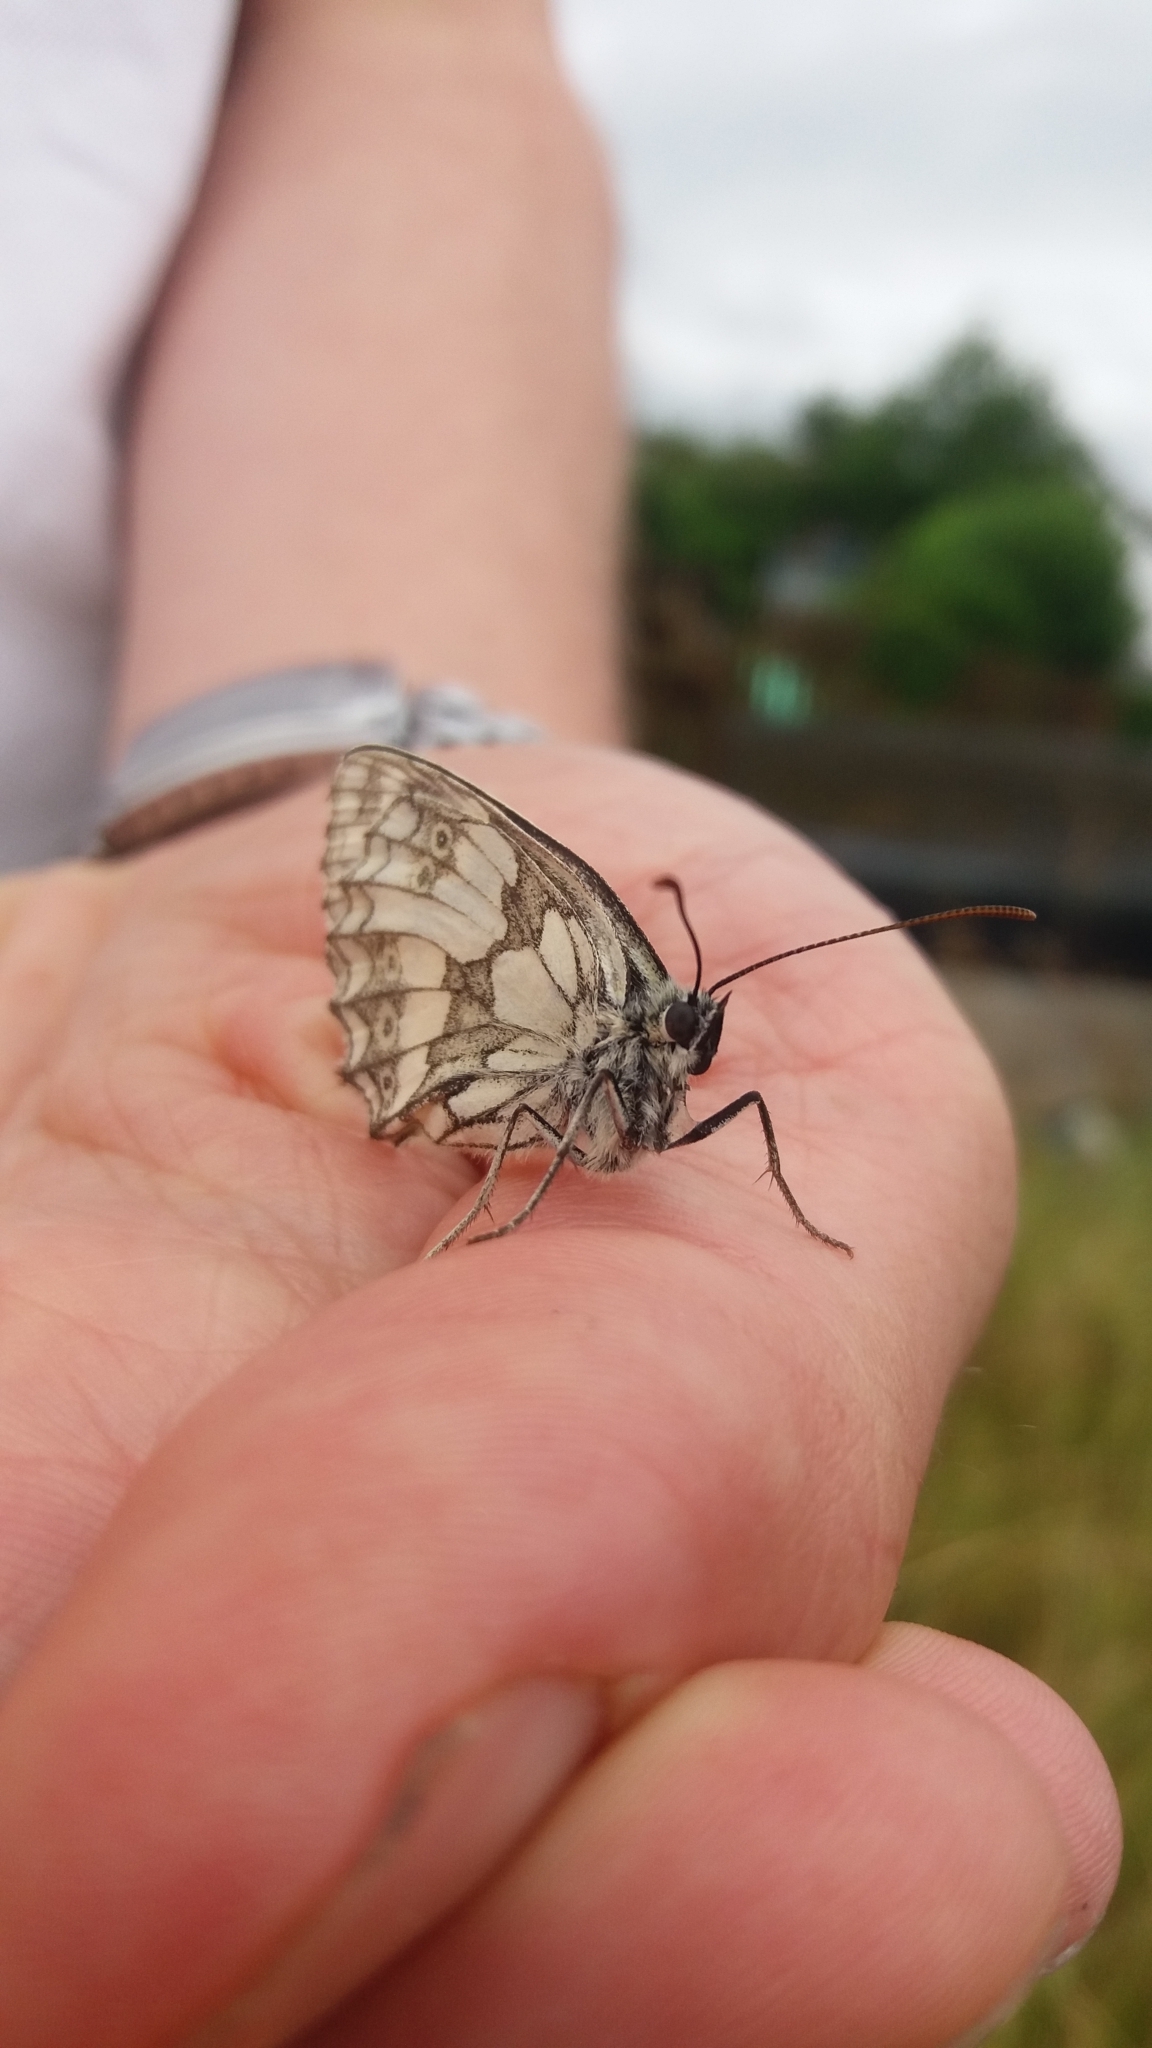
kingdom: Animalia
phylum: Arthropoda
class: Insecta
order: Lepidoptera
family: Nymphalidae
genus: Melanargia
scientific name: Melanargia galathea
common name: Marbled white
